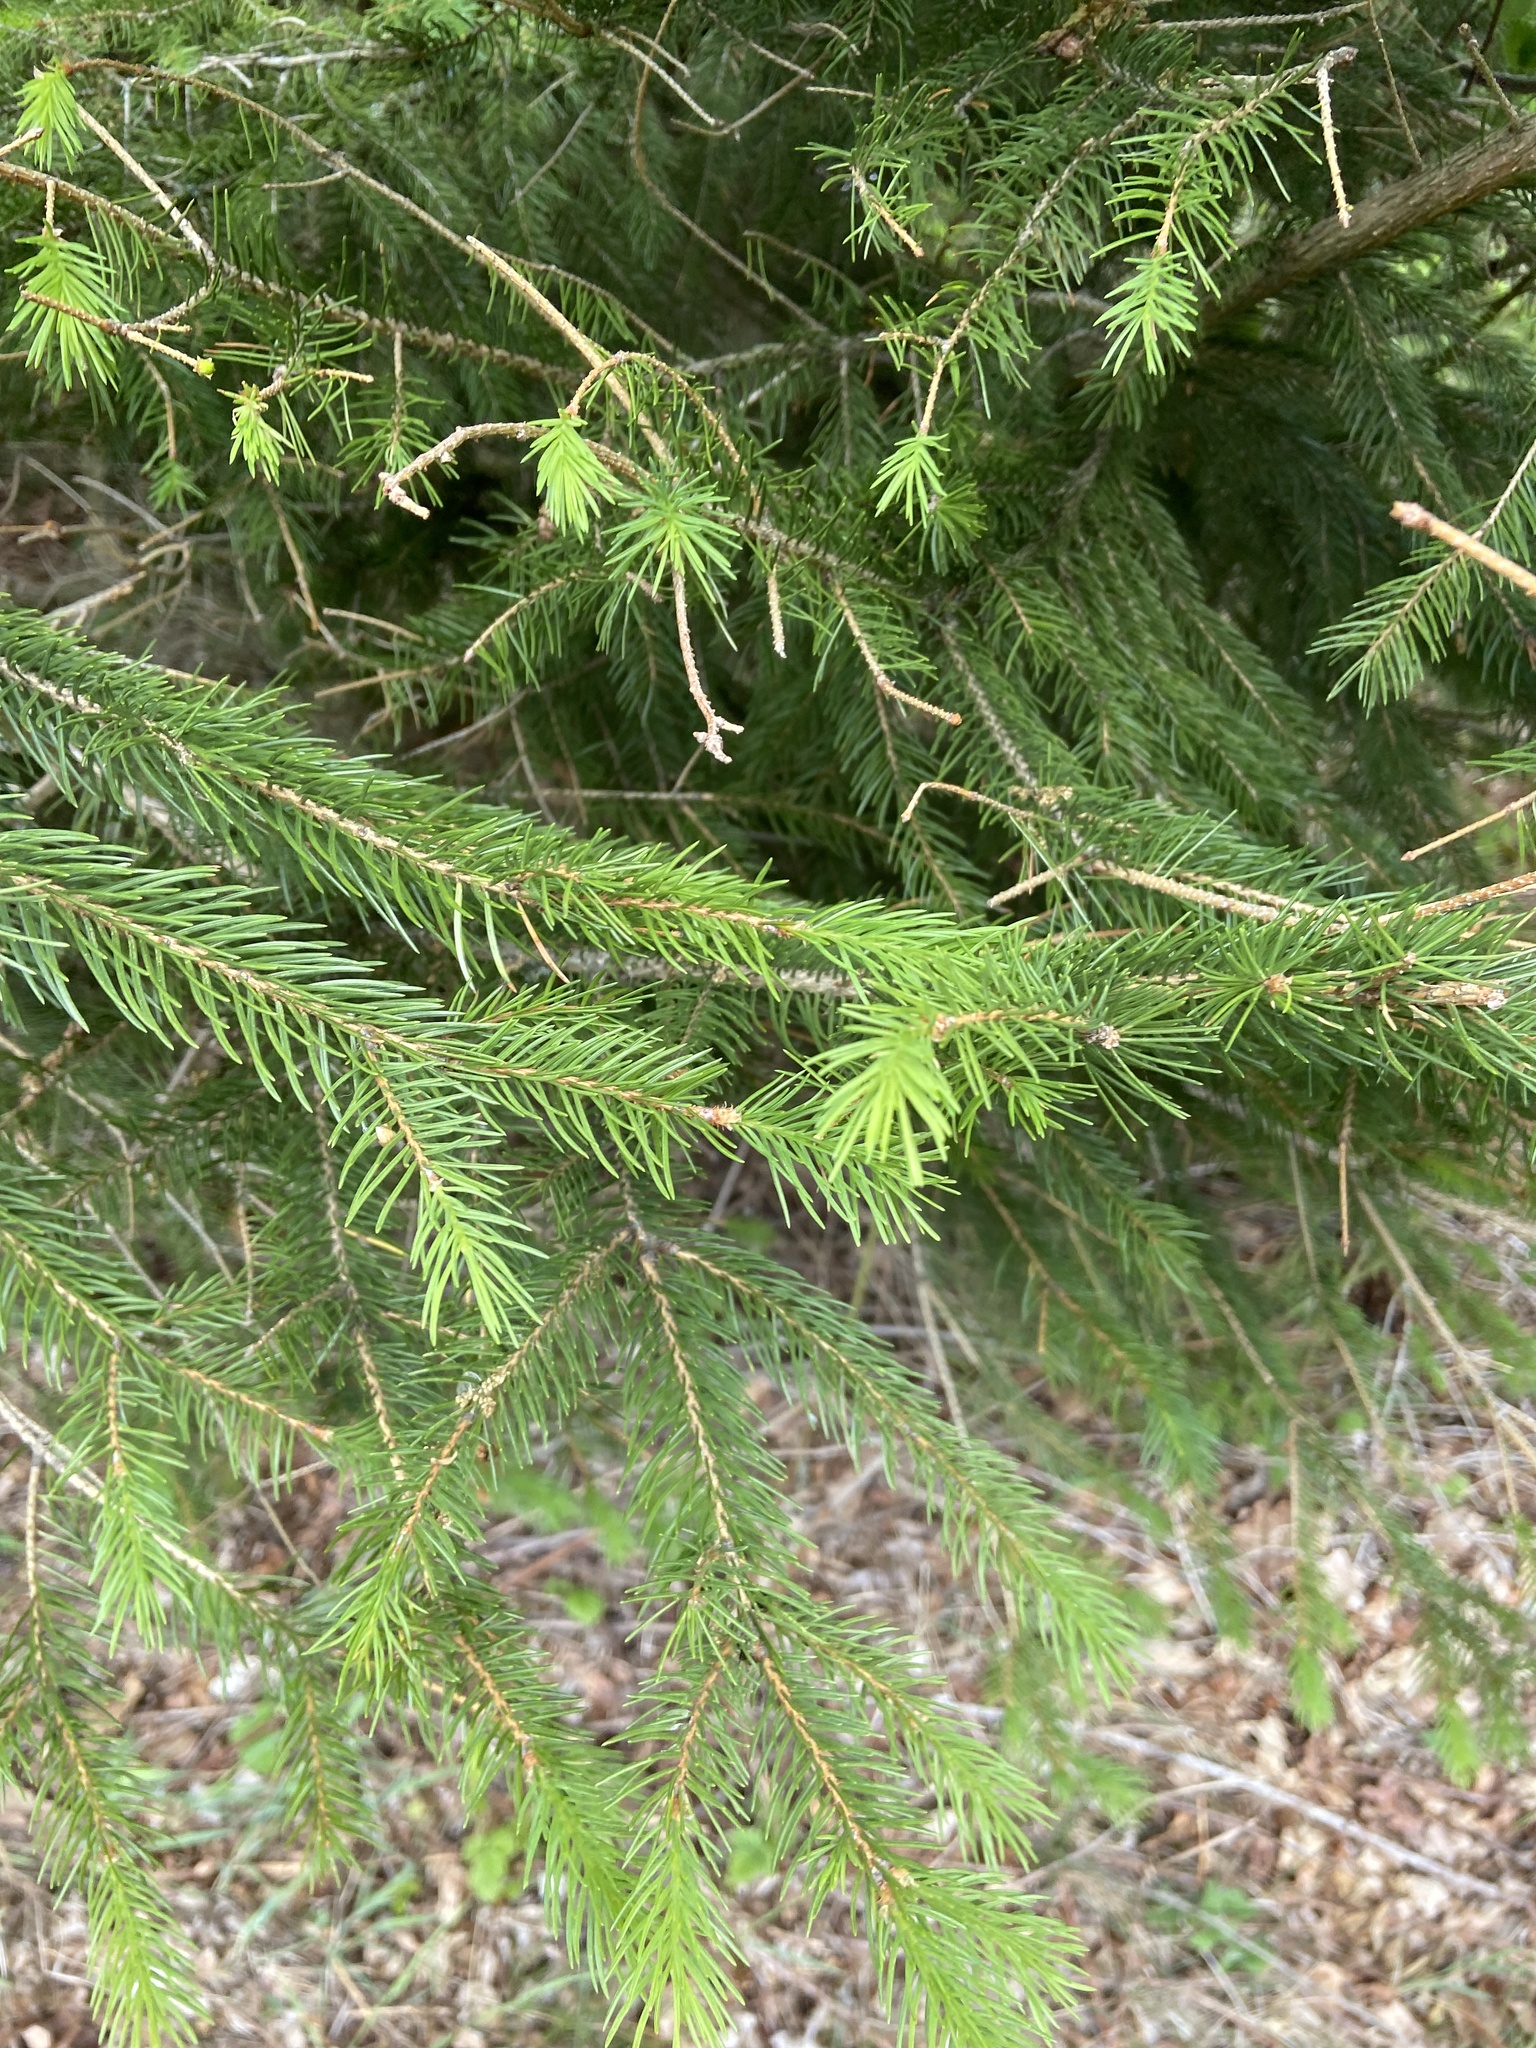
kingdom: Plantae
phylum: Tracheophyta
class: Pinopsida
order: Pinales
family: Pinaceae
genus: Picea
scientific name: Picea abies
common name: Norway spruce
